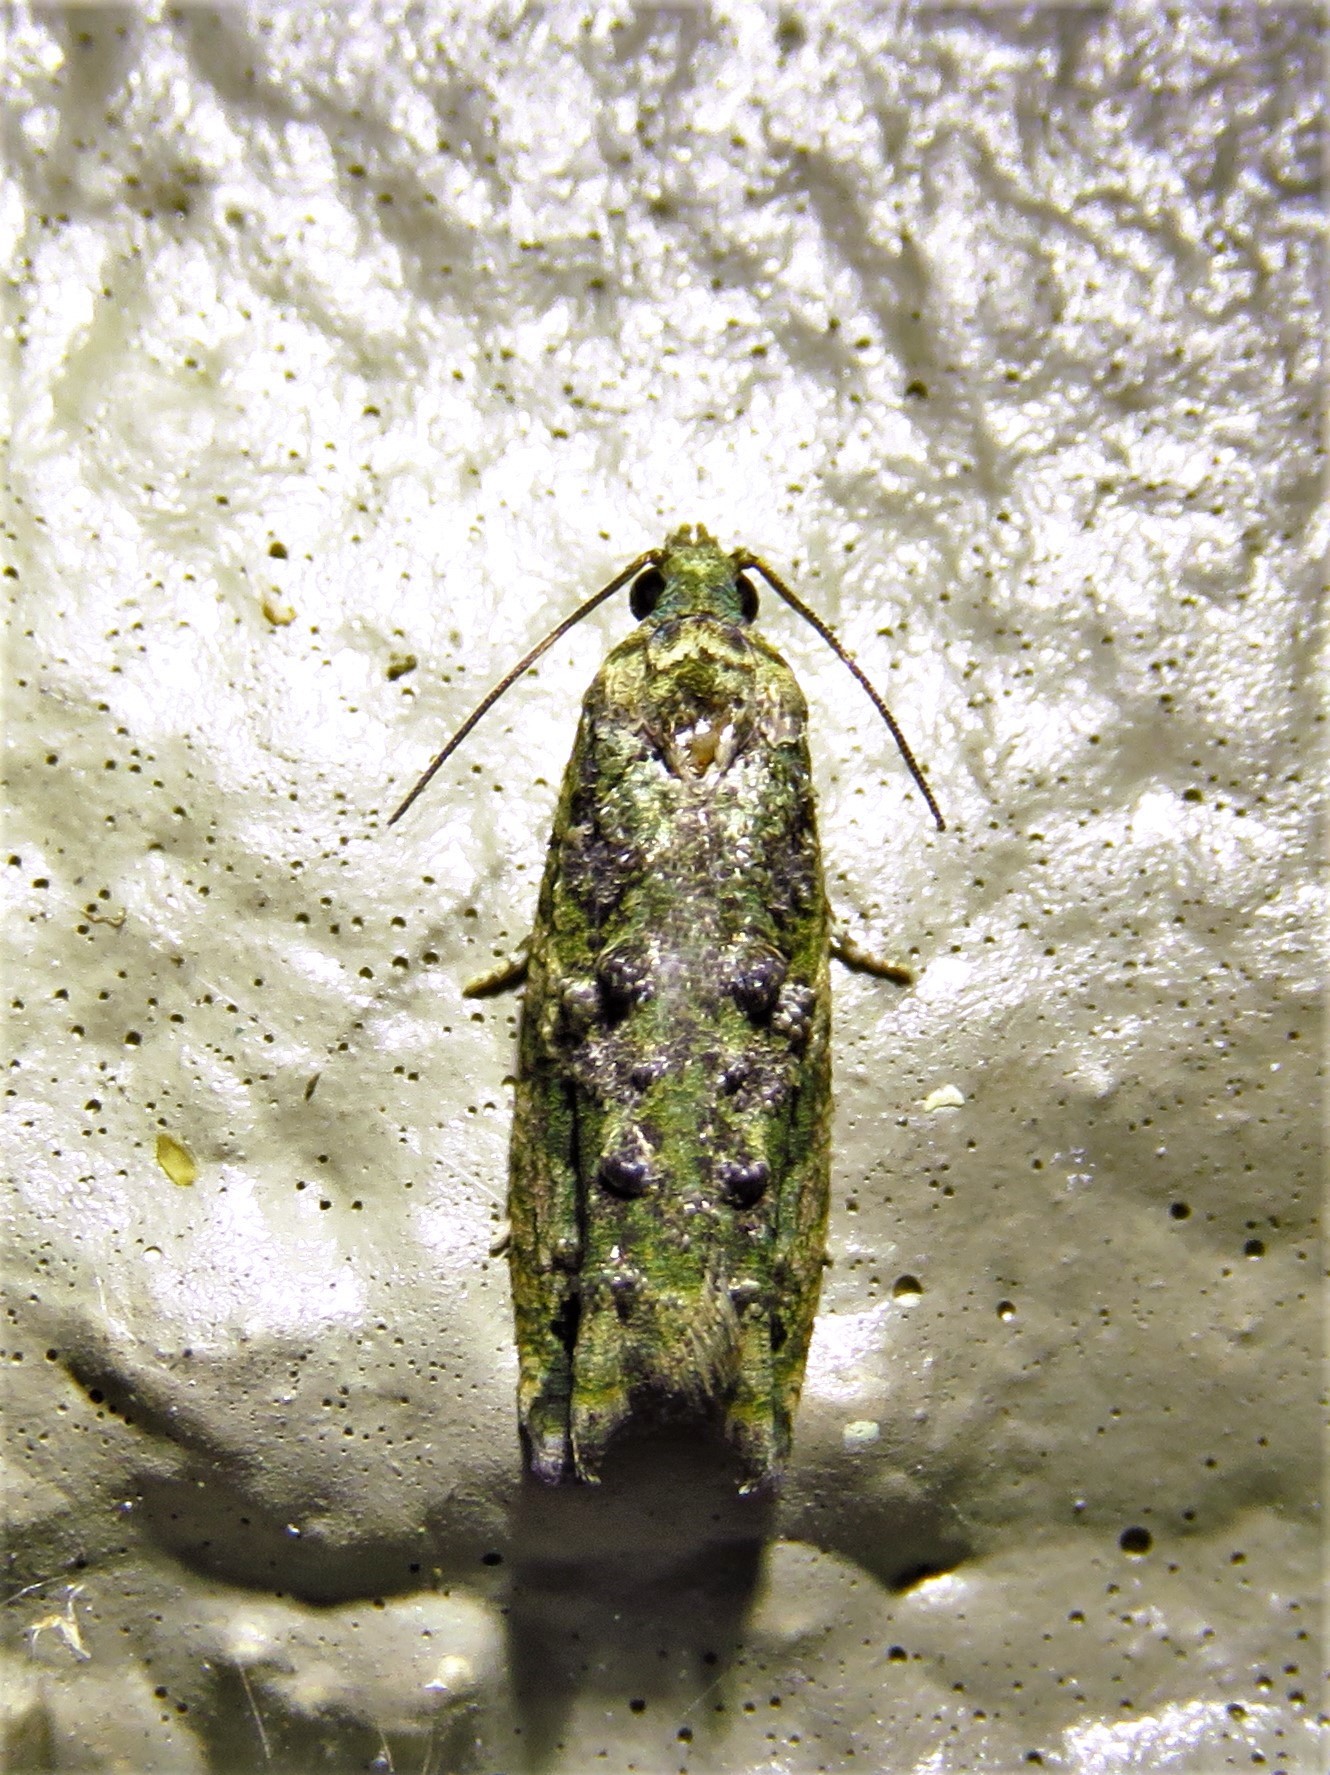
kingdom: Animalia
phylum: Arthropoda
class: Insecta
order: Lepidoptera
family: Tortricidae
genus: Proteoteras
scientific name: Proteoteras aesculana
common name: Maple twig borer moth
